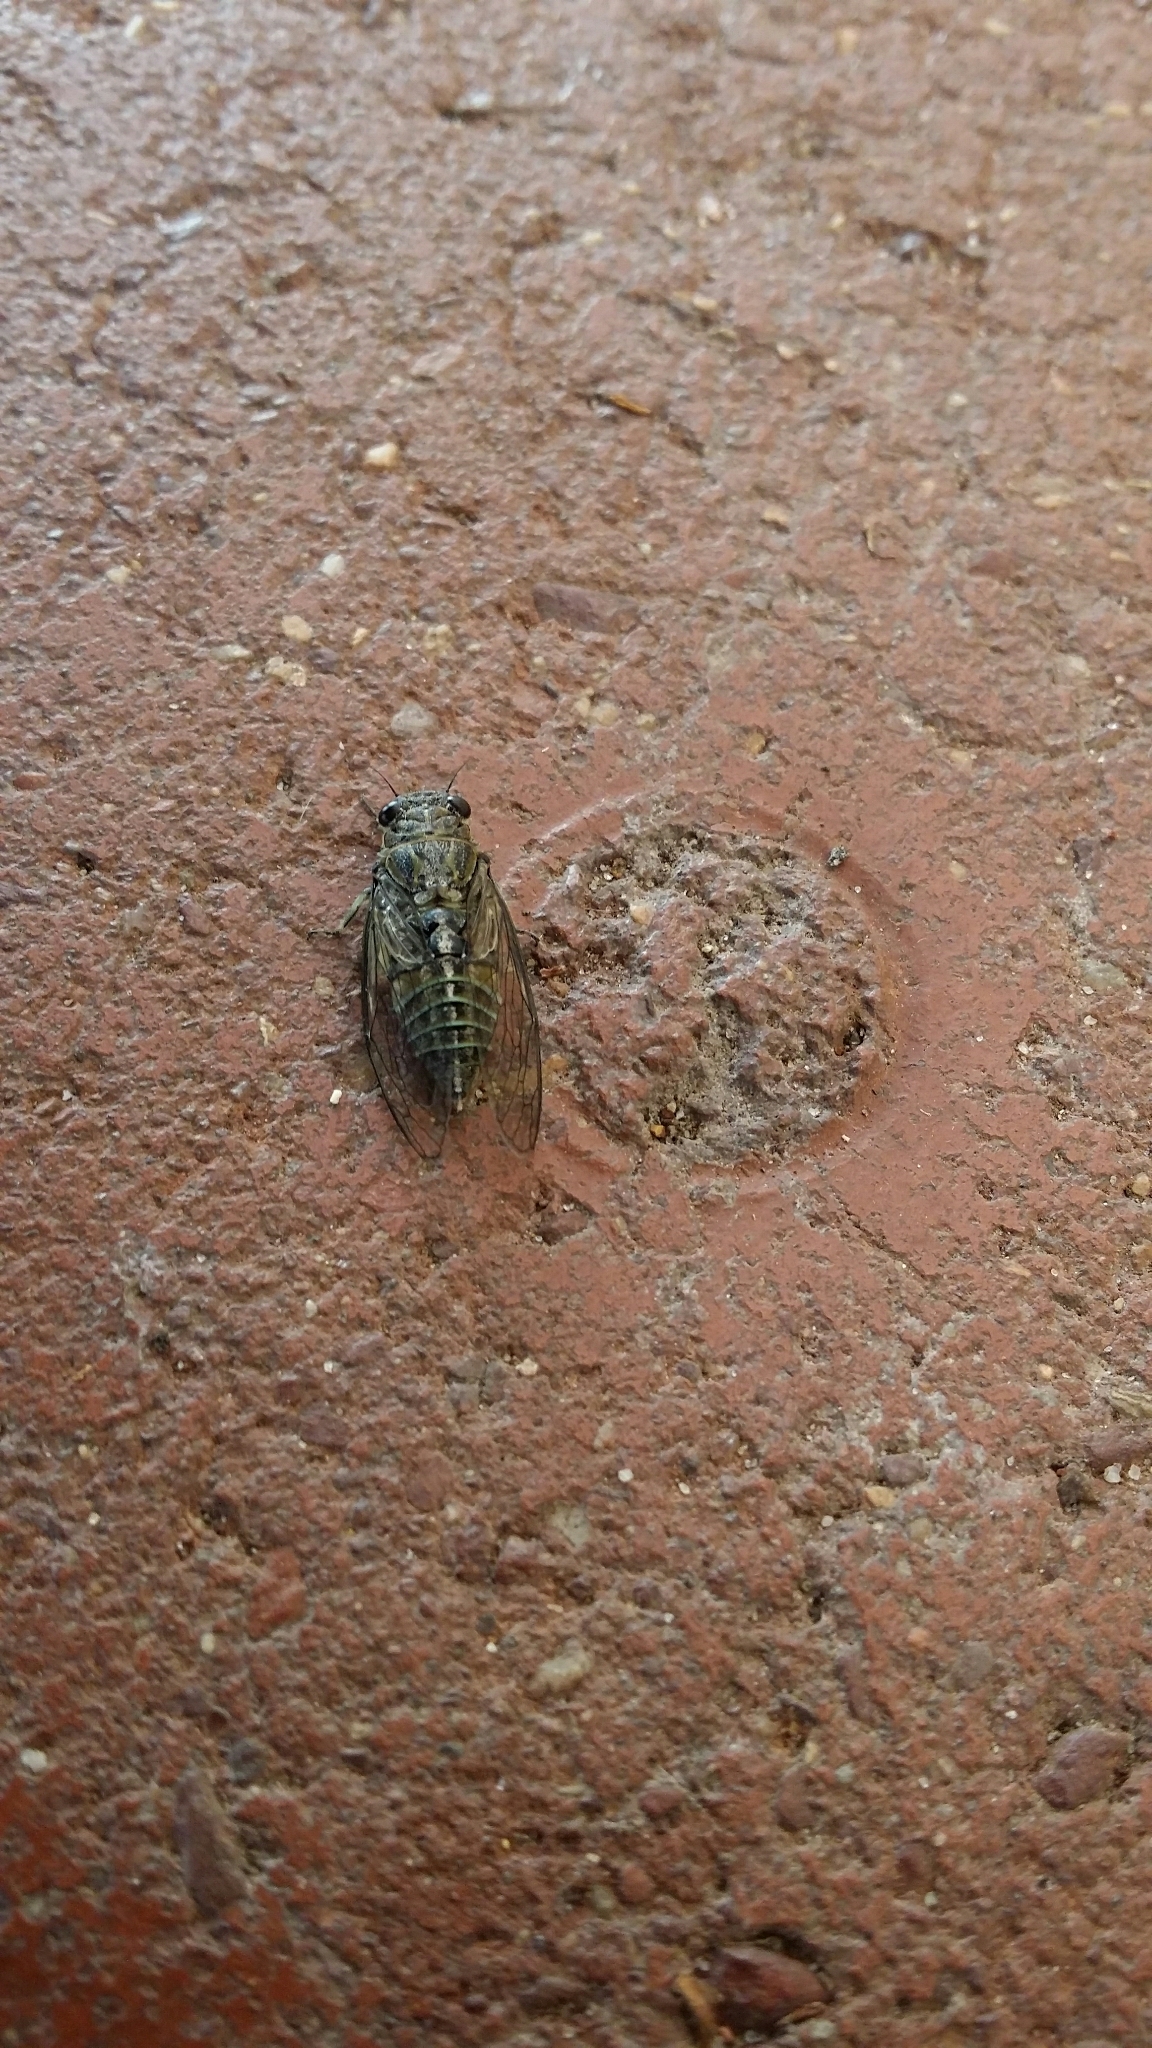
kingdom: Animalia
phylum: Arthropoda
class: Insecta
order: Hemiptera
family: Cicadidae
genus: Physeema
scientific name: Physeema quadricincta
